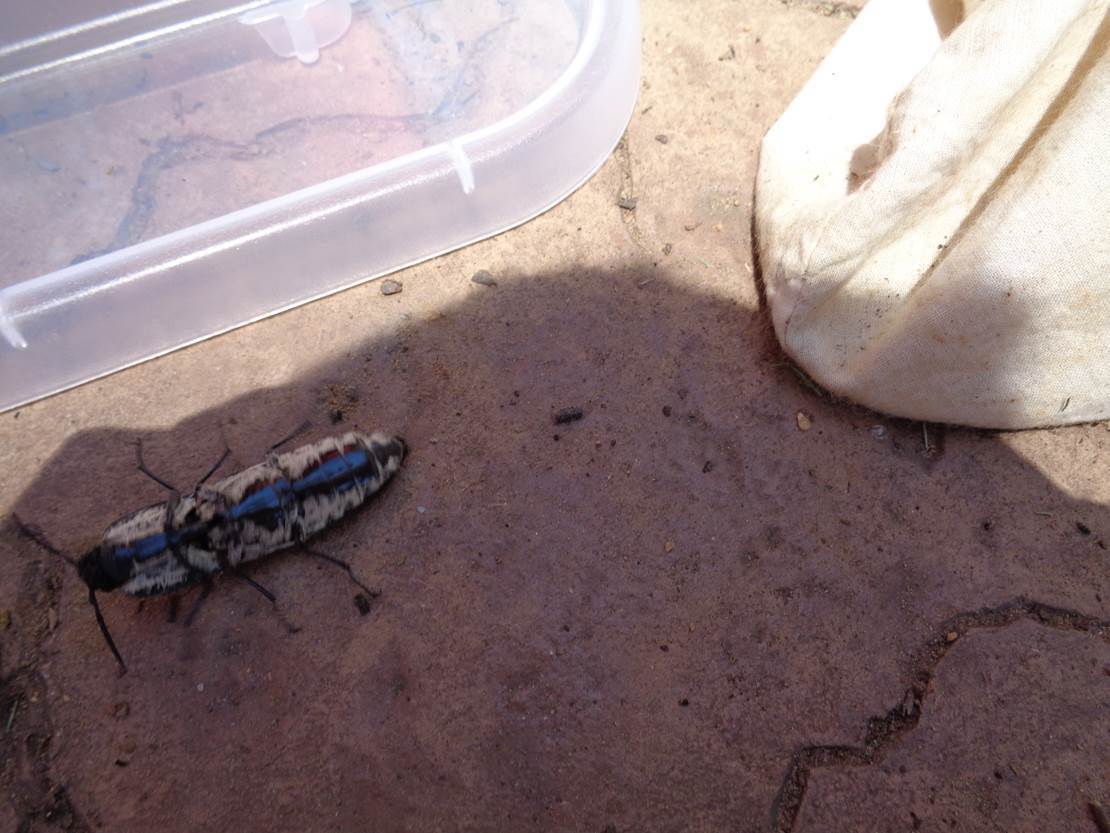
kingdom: Animalia
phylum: Arthropoda
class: Insecta
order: Coleoptera
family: Elateridae
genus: Alaus
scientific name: Alaus oculatus
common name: Eastern eyed click beetle
